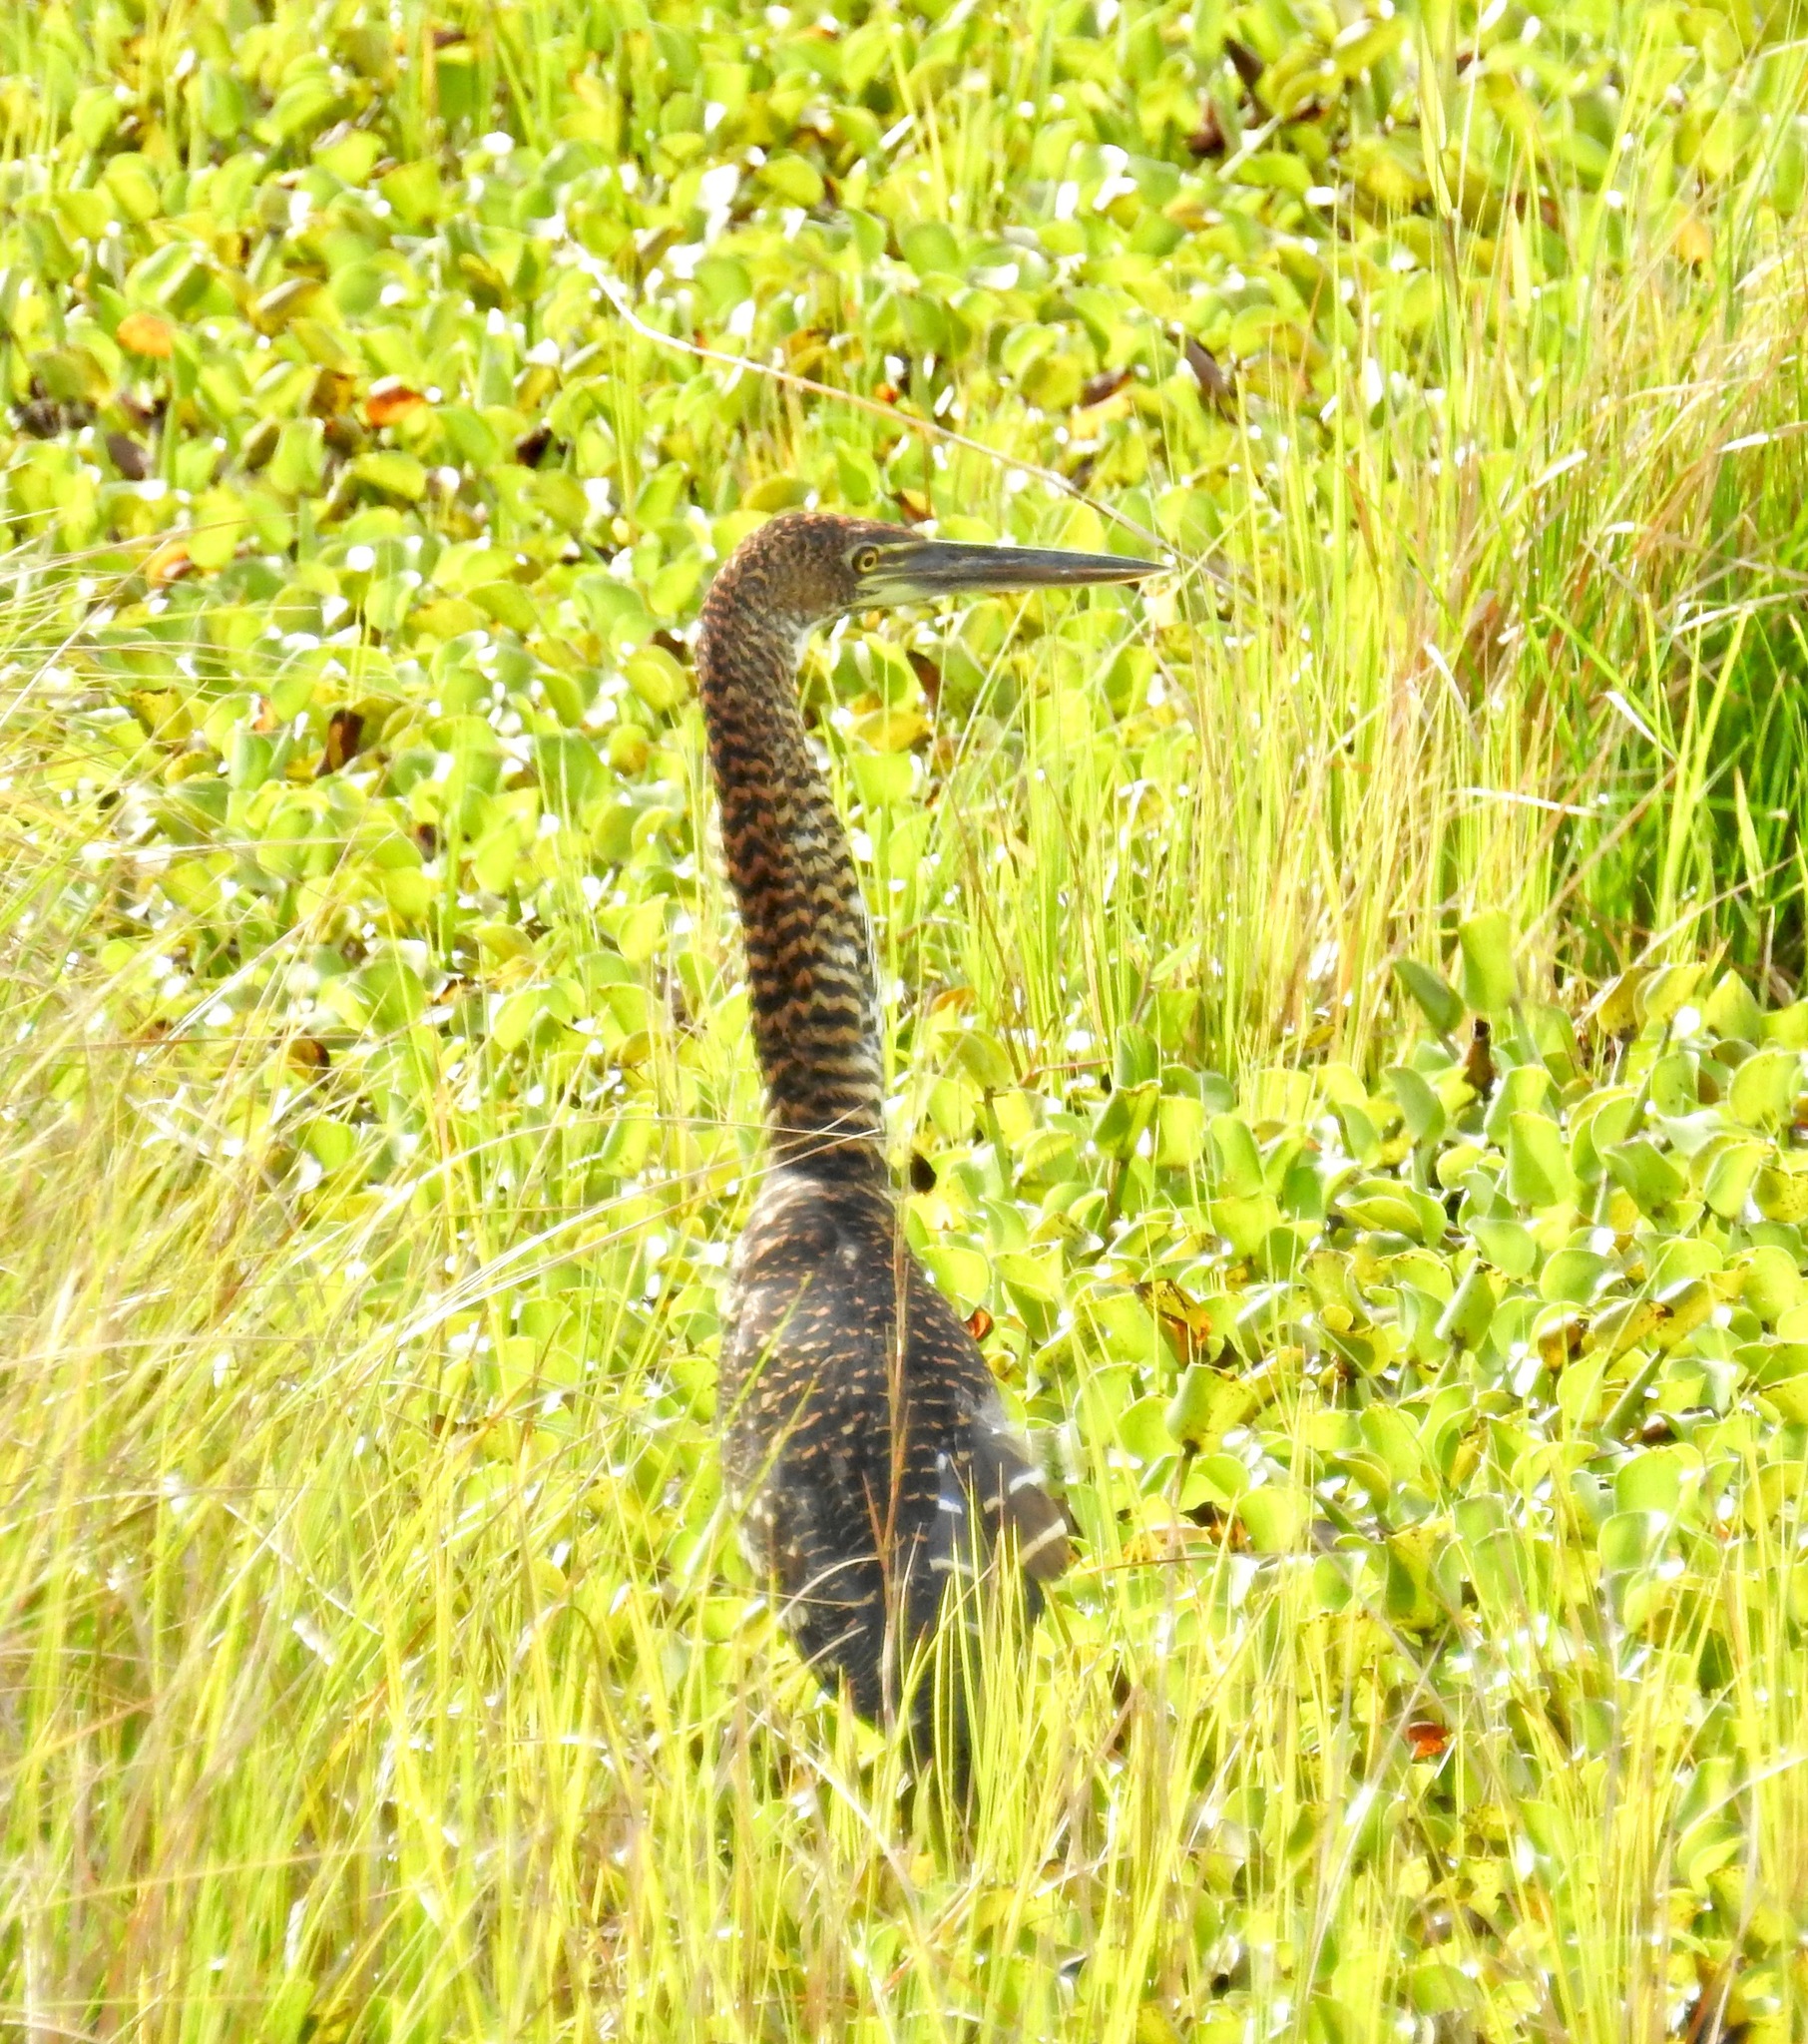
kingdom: Animalia
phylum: Chordata
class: Aves
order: Pelecaniformes
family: Ardeidae
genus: Tigrisoma
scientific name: Tigrisoma lineatum
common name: Rufescent tiger-heron
